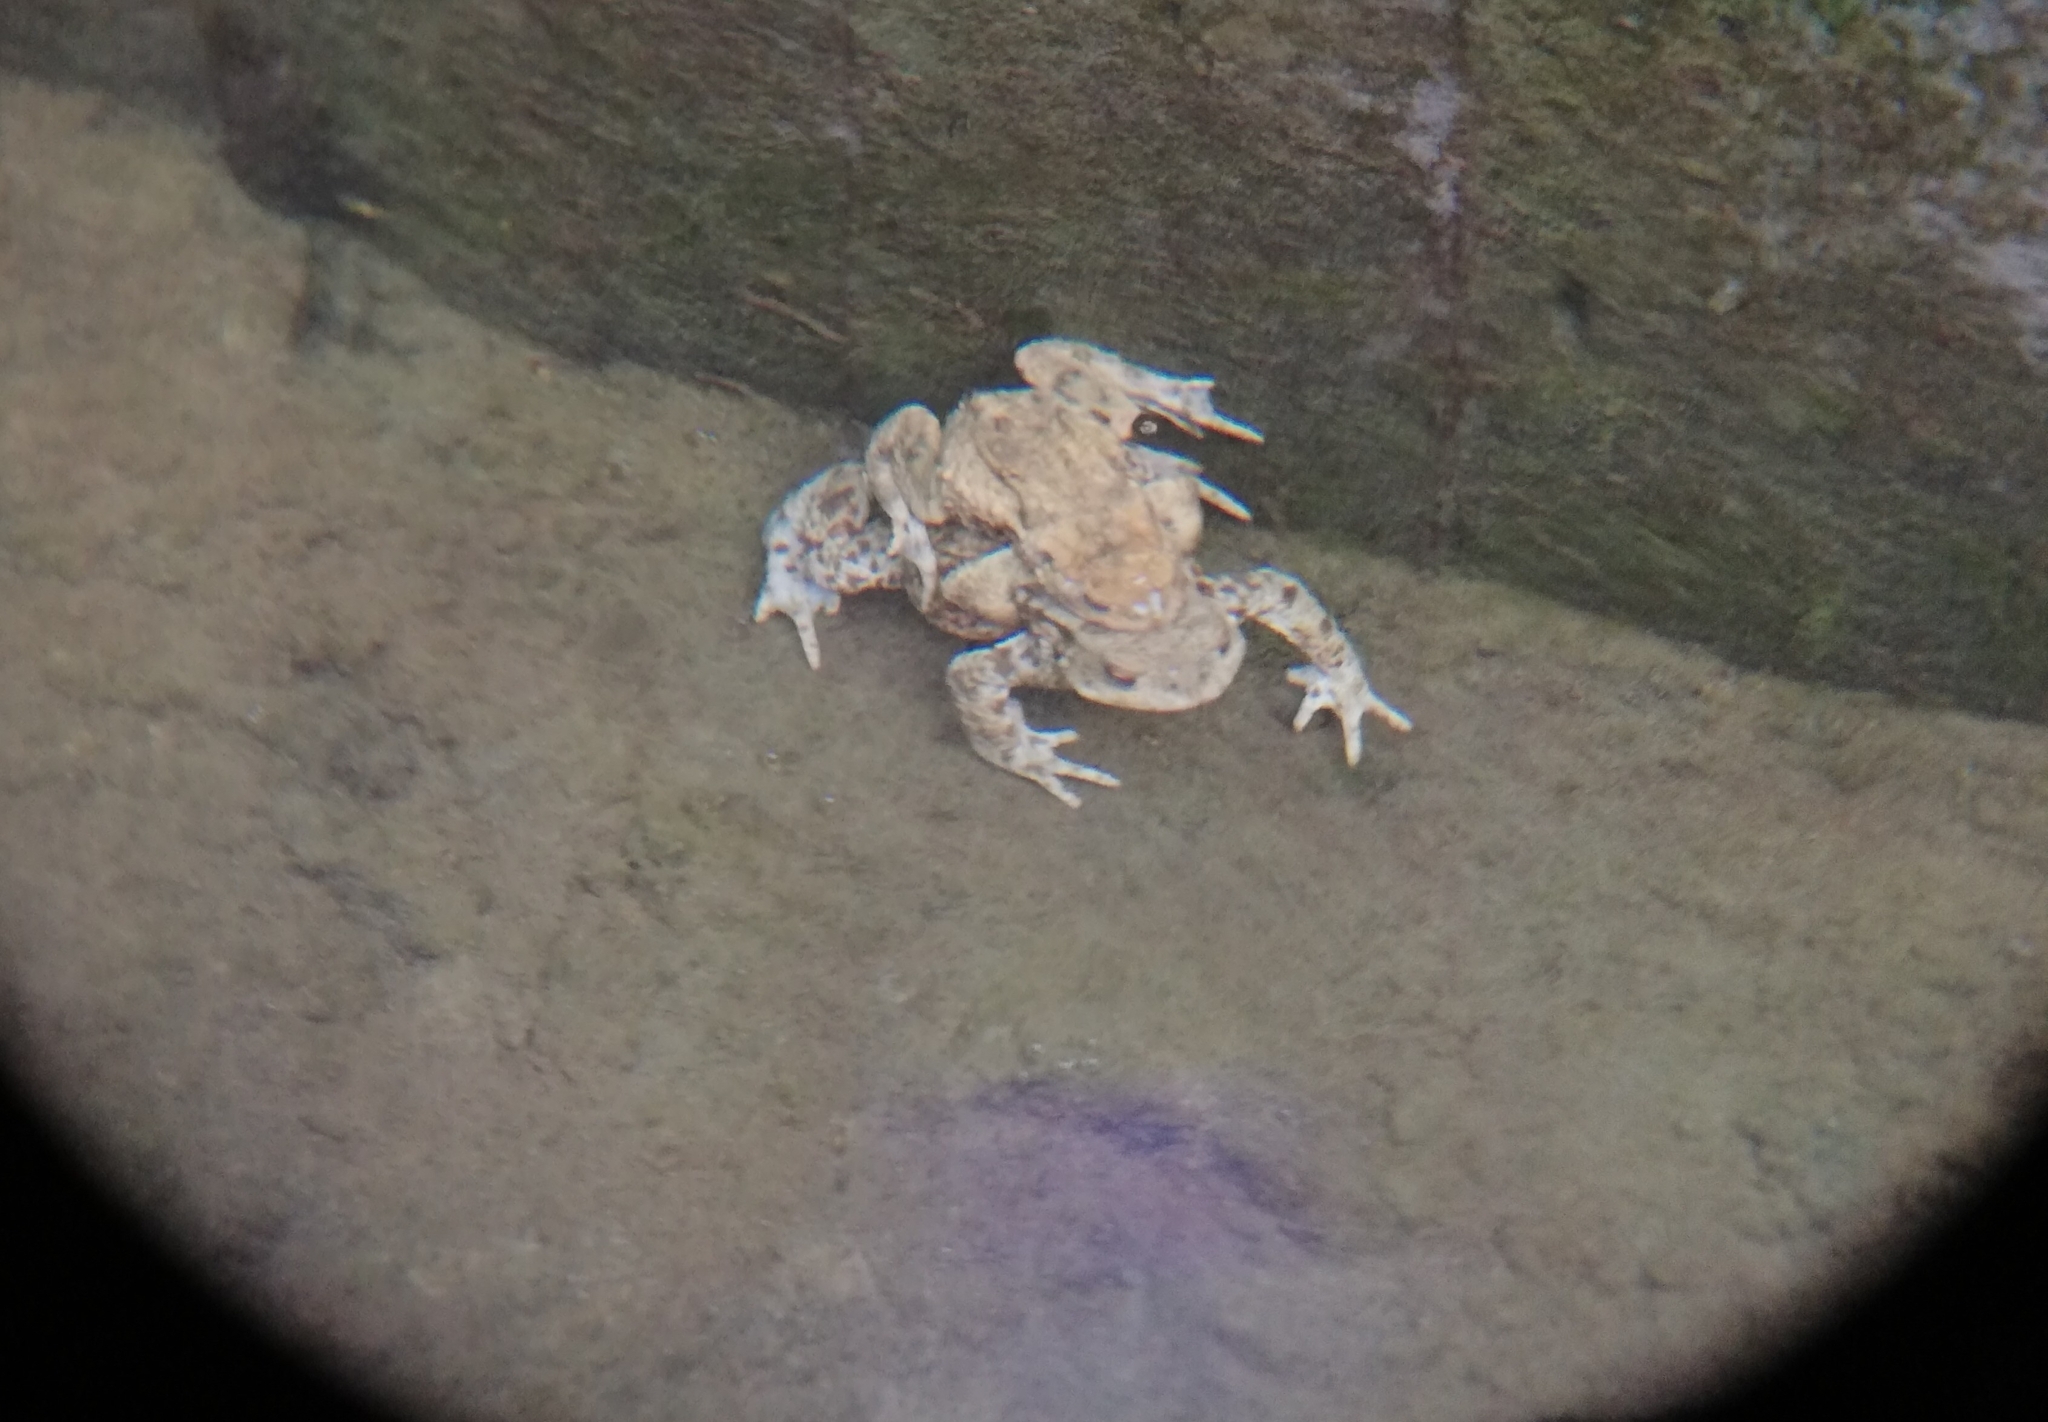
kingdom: Animalia
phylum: Chordata
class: Amphibia
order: Anura
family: Bufonidae
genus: Bufo
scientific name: Bufo bufo
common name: Common toad
